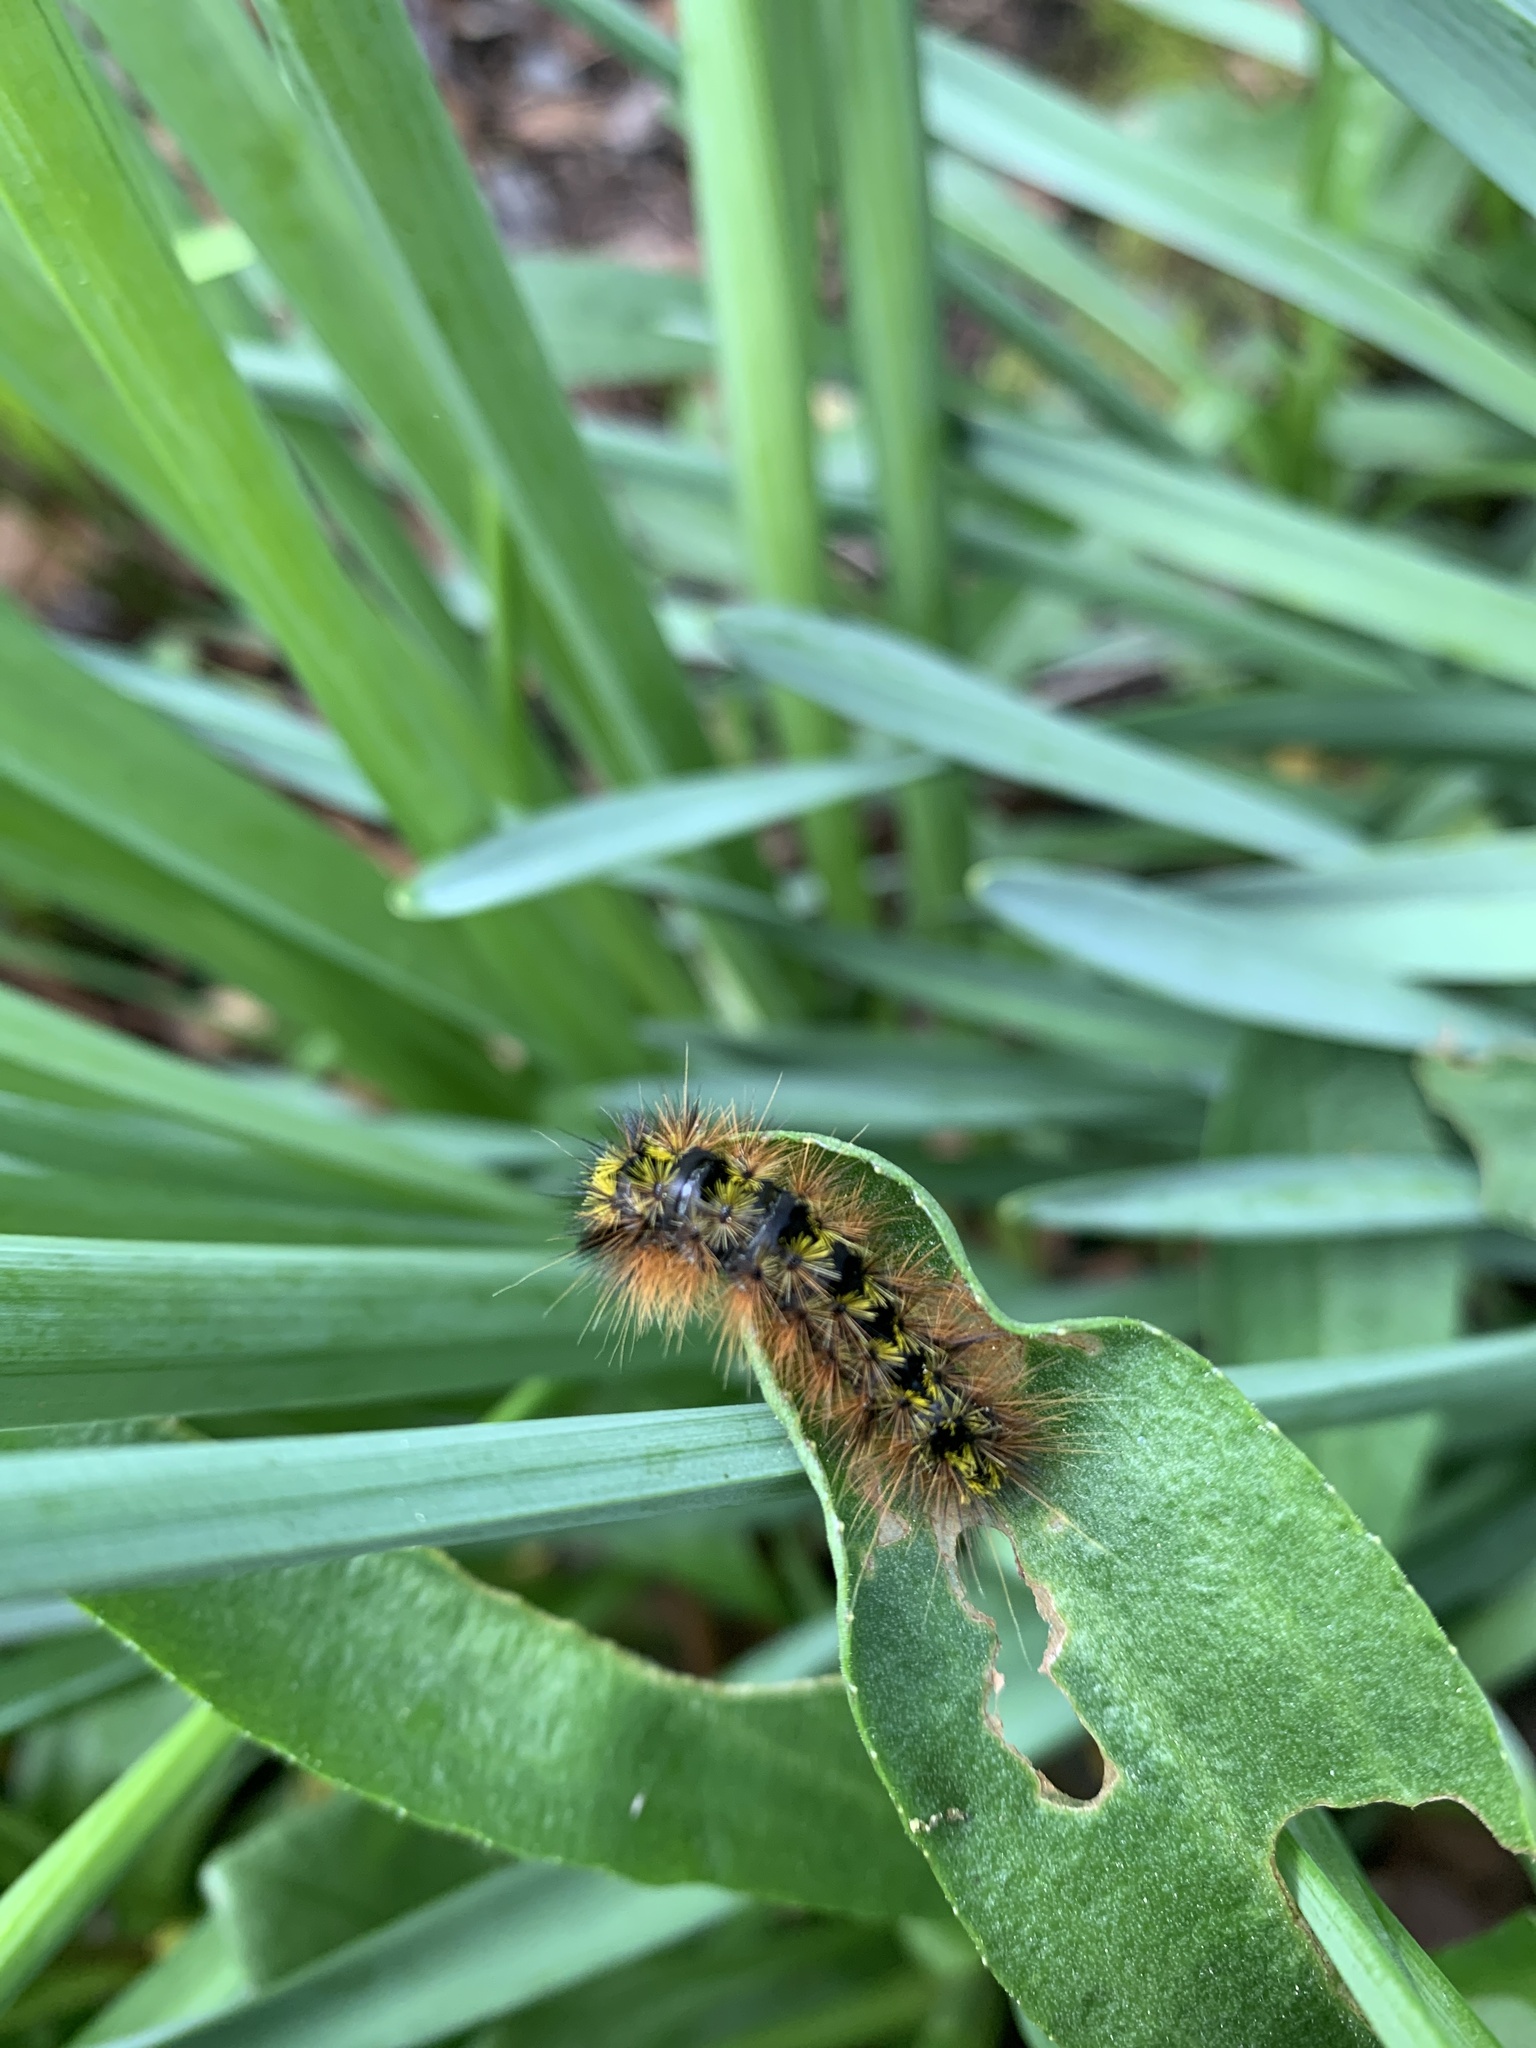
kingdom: Animalia
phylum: Arthropoda
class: Insecta
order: Lepidoptera
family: Erebidae
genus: Lophocampa
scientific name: Lophocampa argentata
